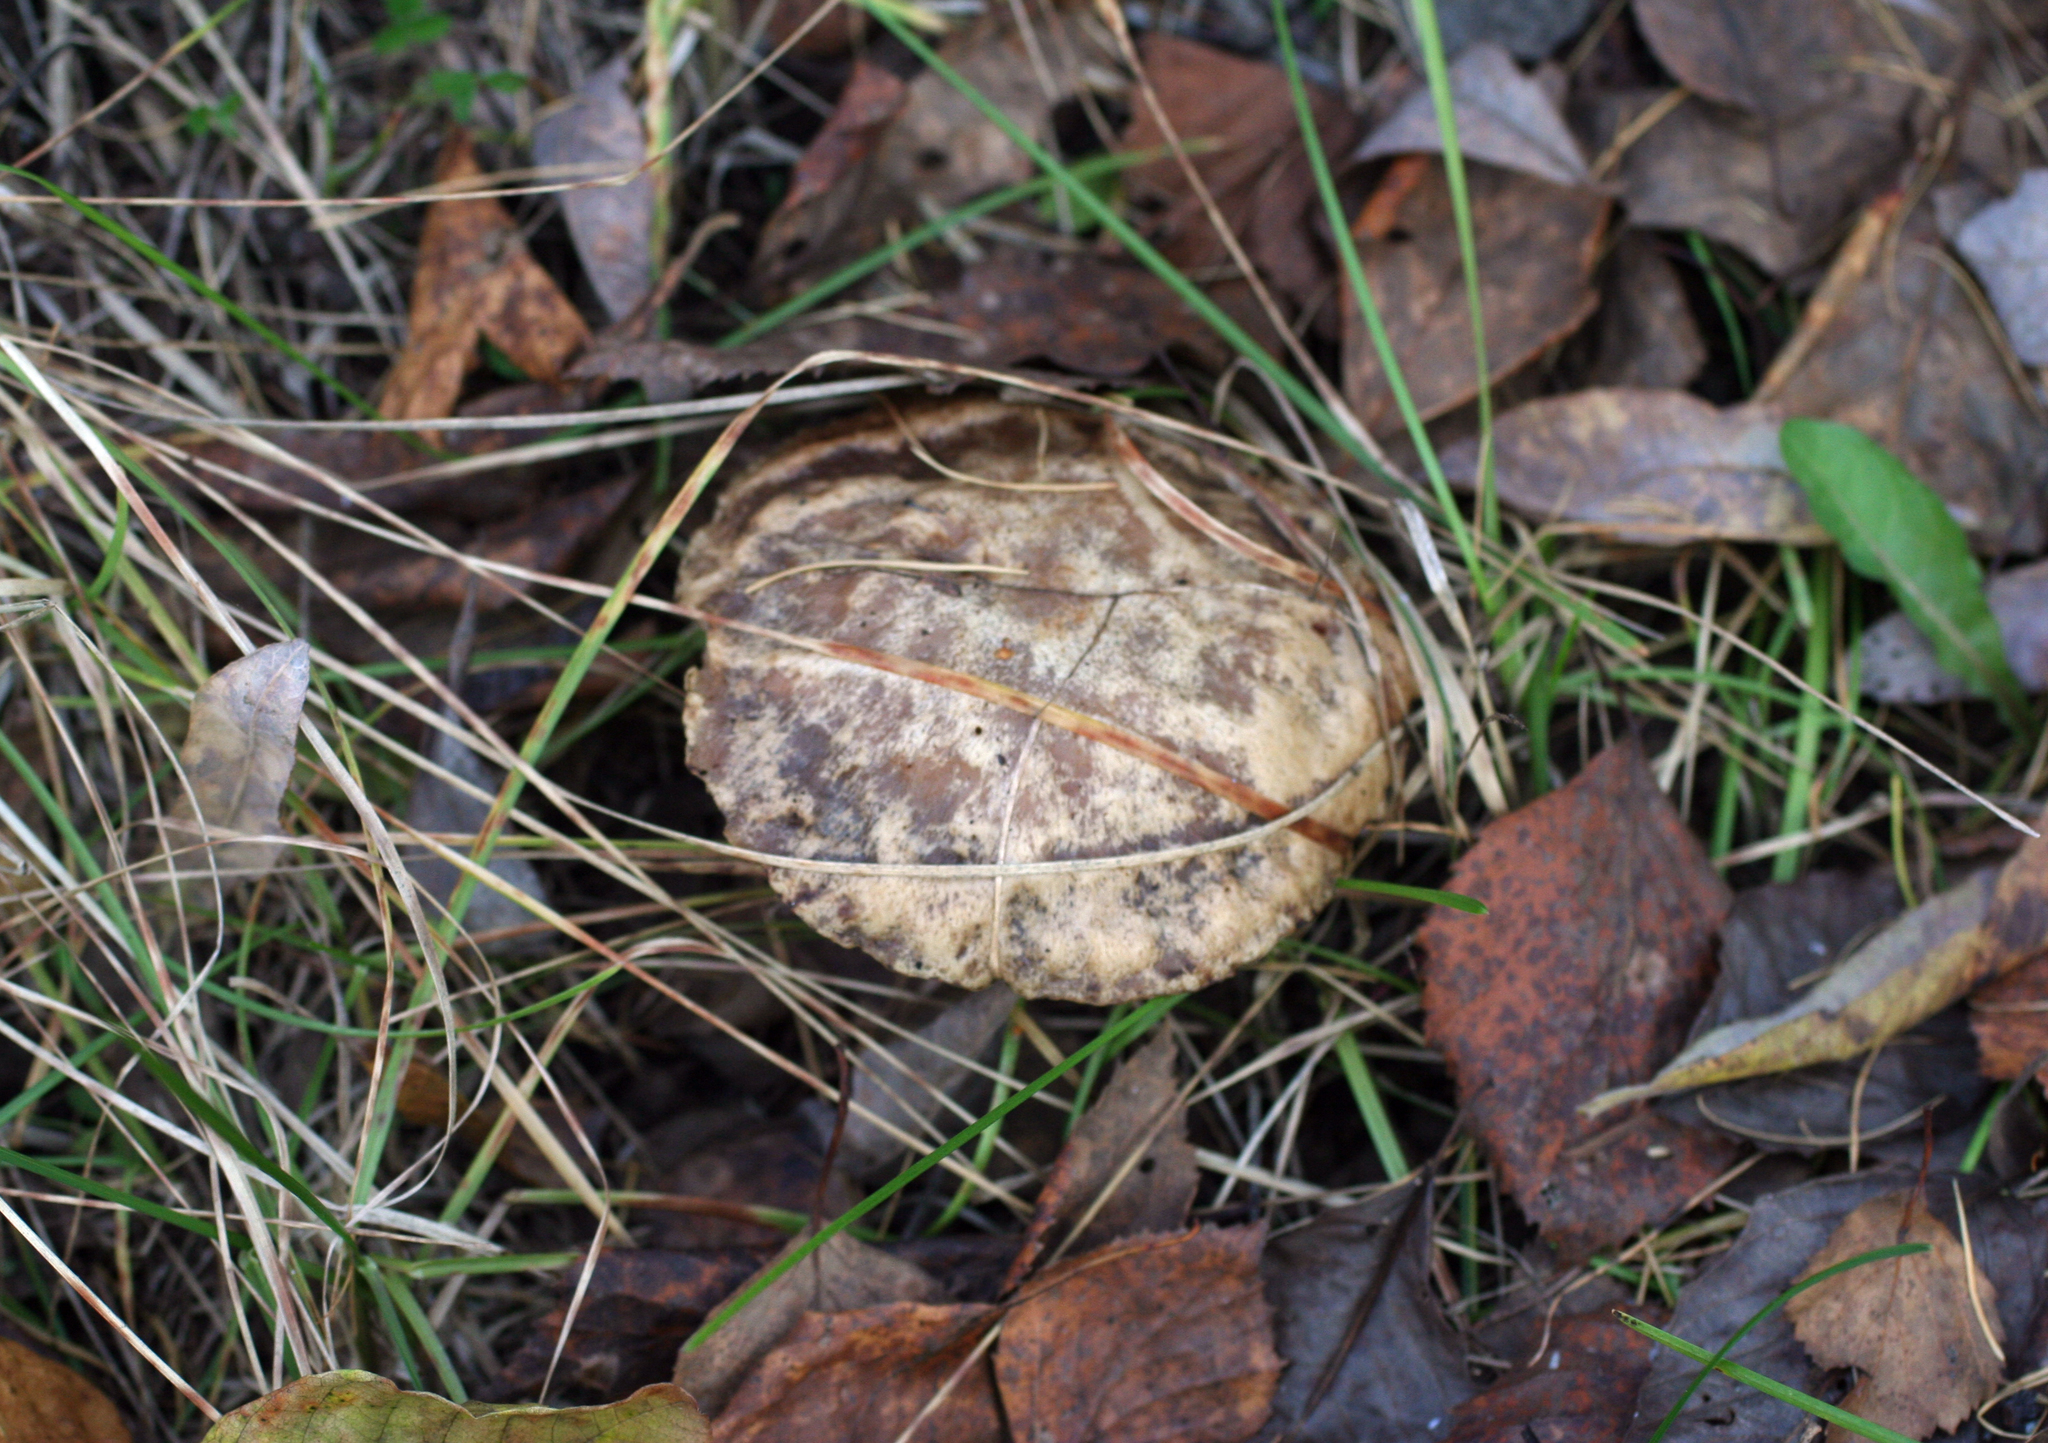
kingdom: Fungi
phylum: Basidiomycota
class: Agaricomycetes
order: Boletales
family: Suillaceae
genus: Suillus
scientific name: Suillus viscidus
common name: Sticky bolete
